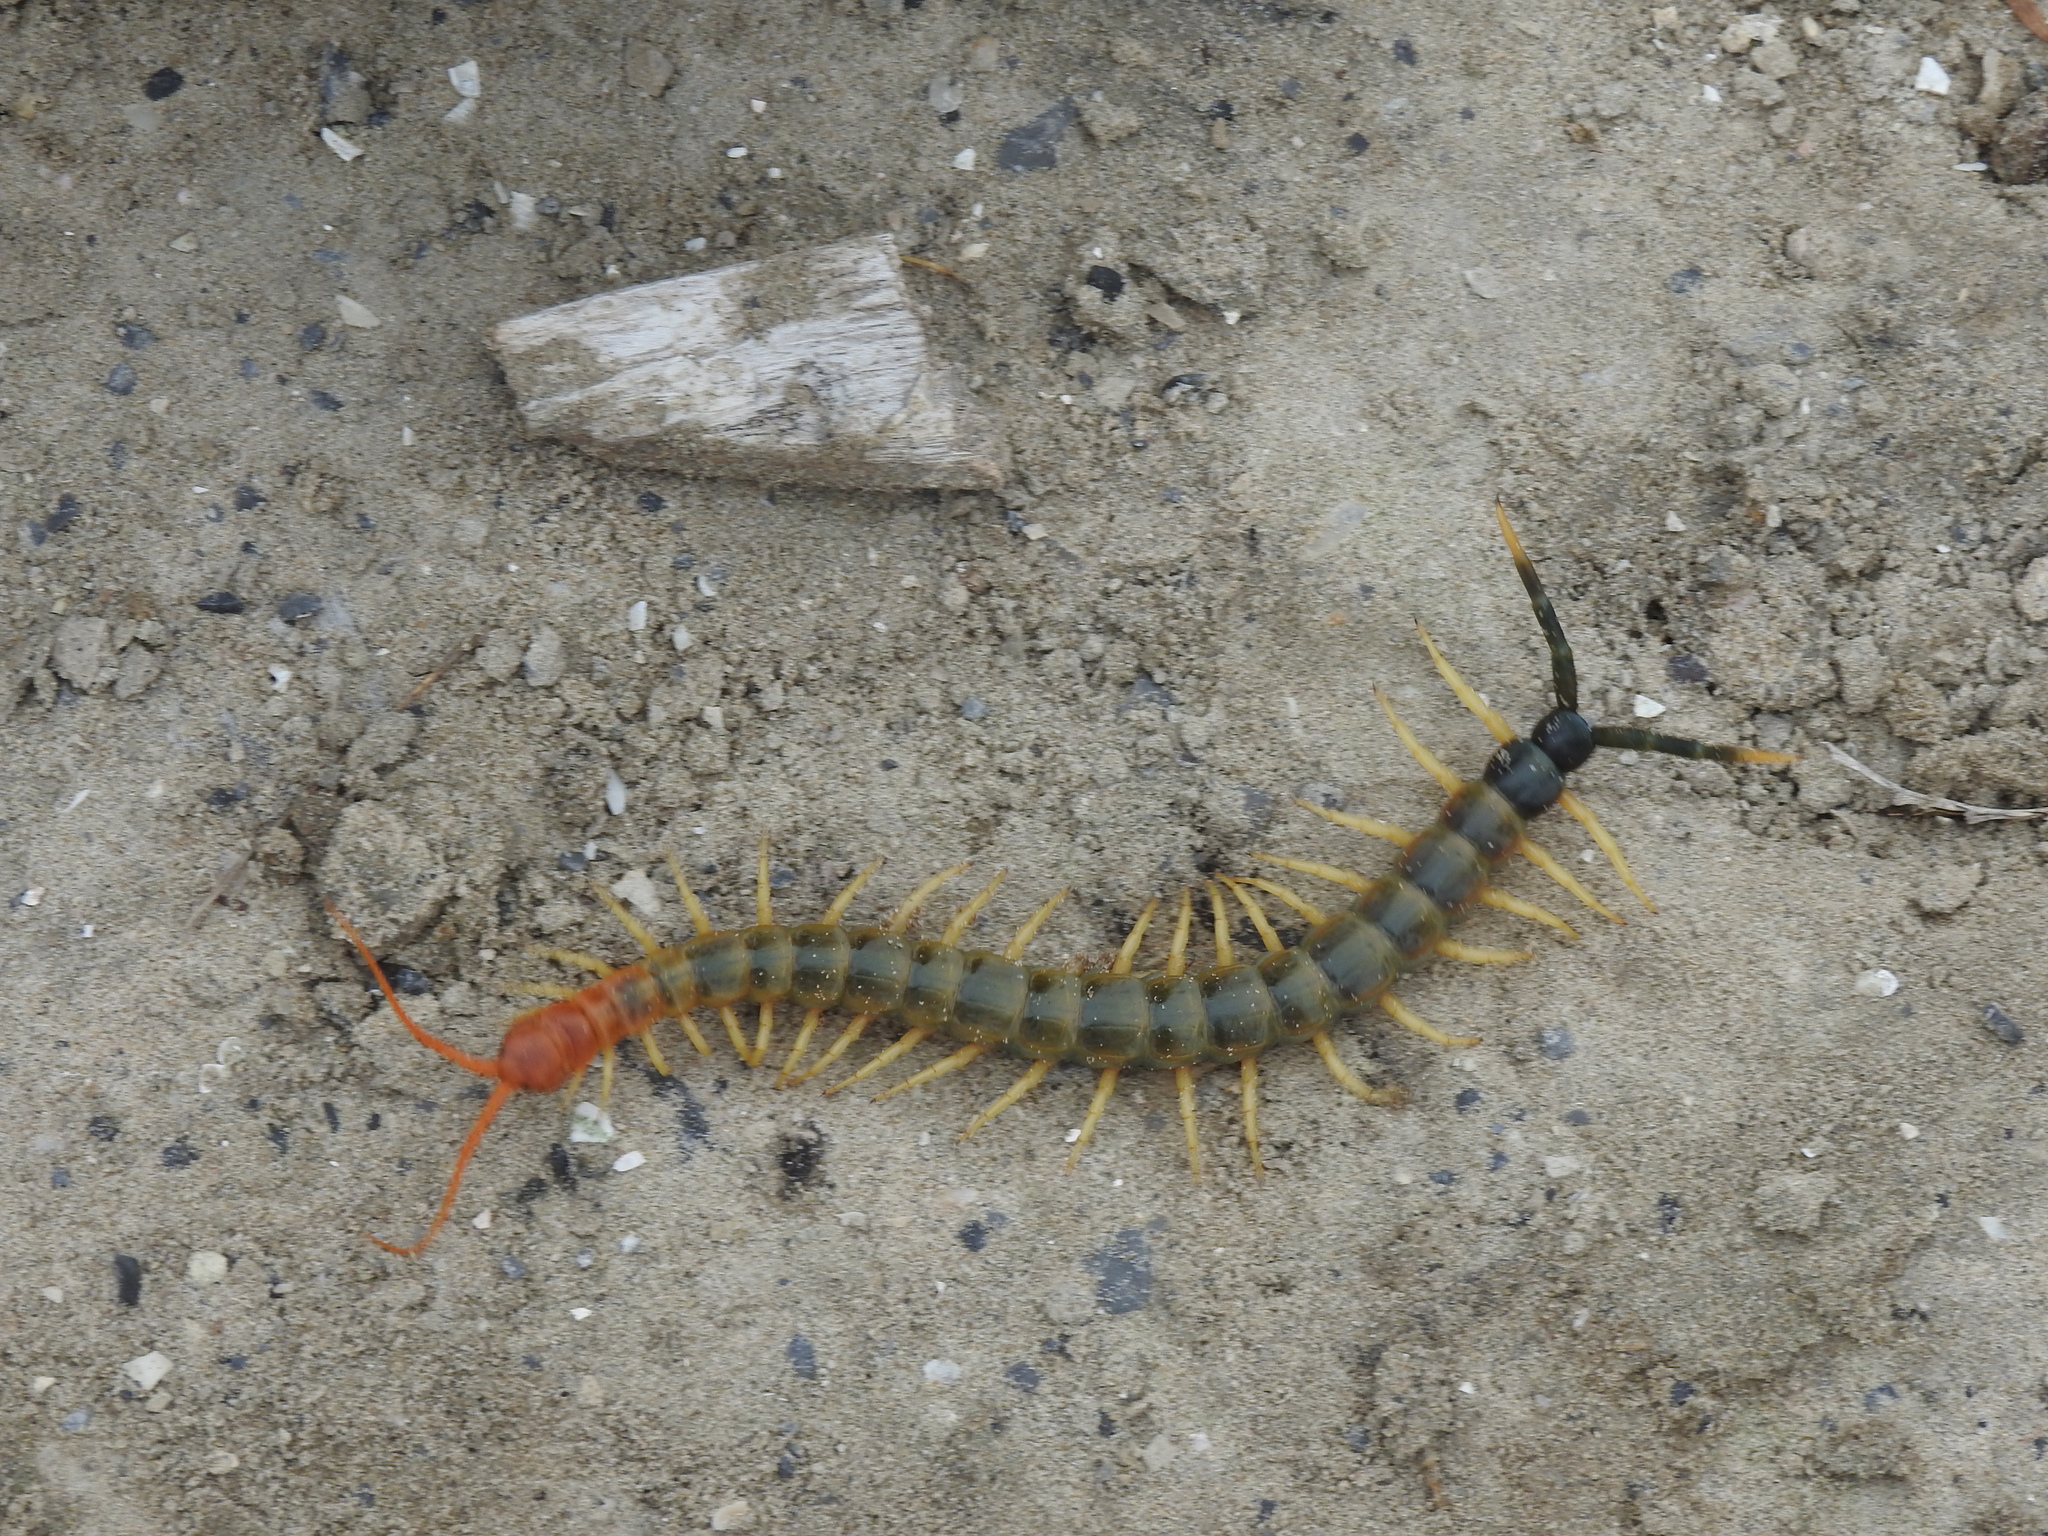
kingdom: Animalia
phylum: Arthropoda
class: Chilopoda
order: Scolopendromorpha
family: Scolopendridae
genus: Scolopendra
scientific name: Scolopendra heros
